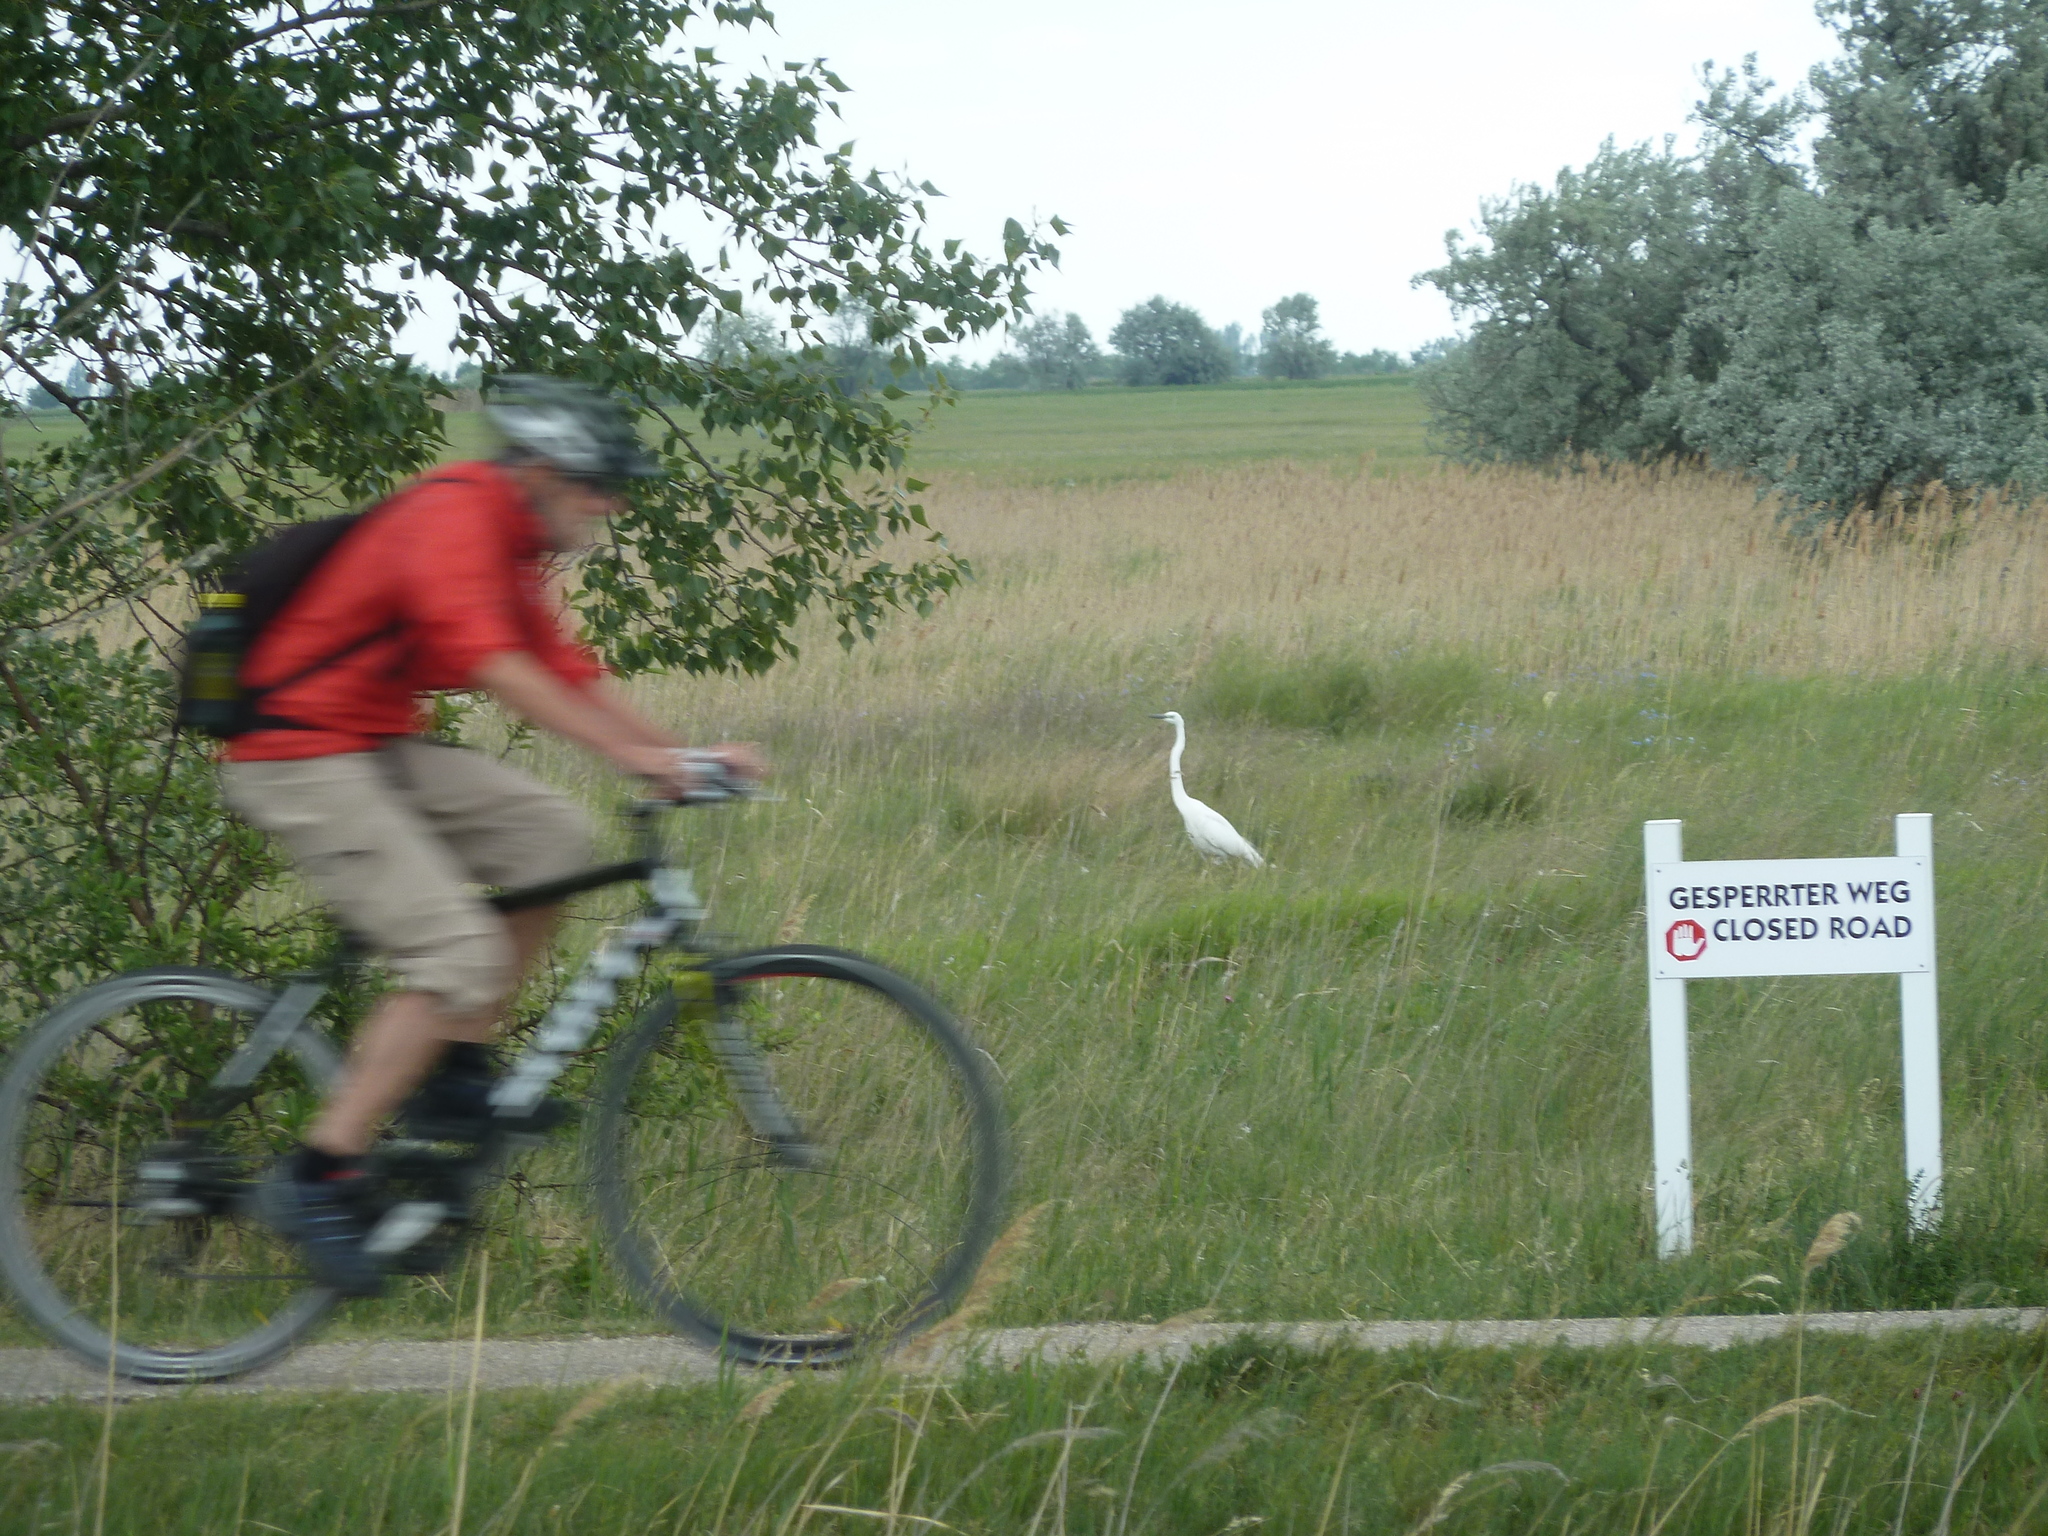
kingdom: Animalia
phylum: Chordata
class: Aves
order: Pelecaniformes
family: Ardeidae
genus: Ardea
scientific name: Ardea alba
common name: Great egret
